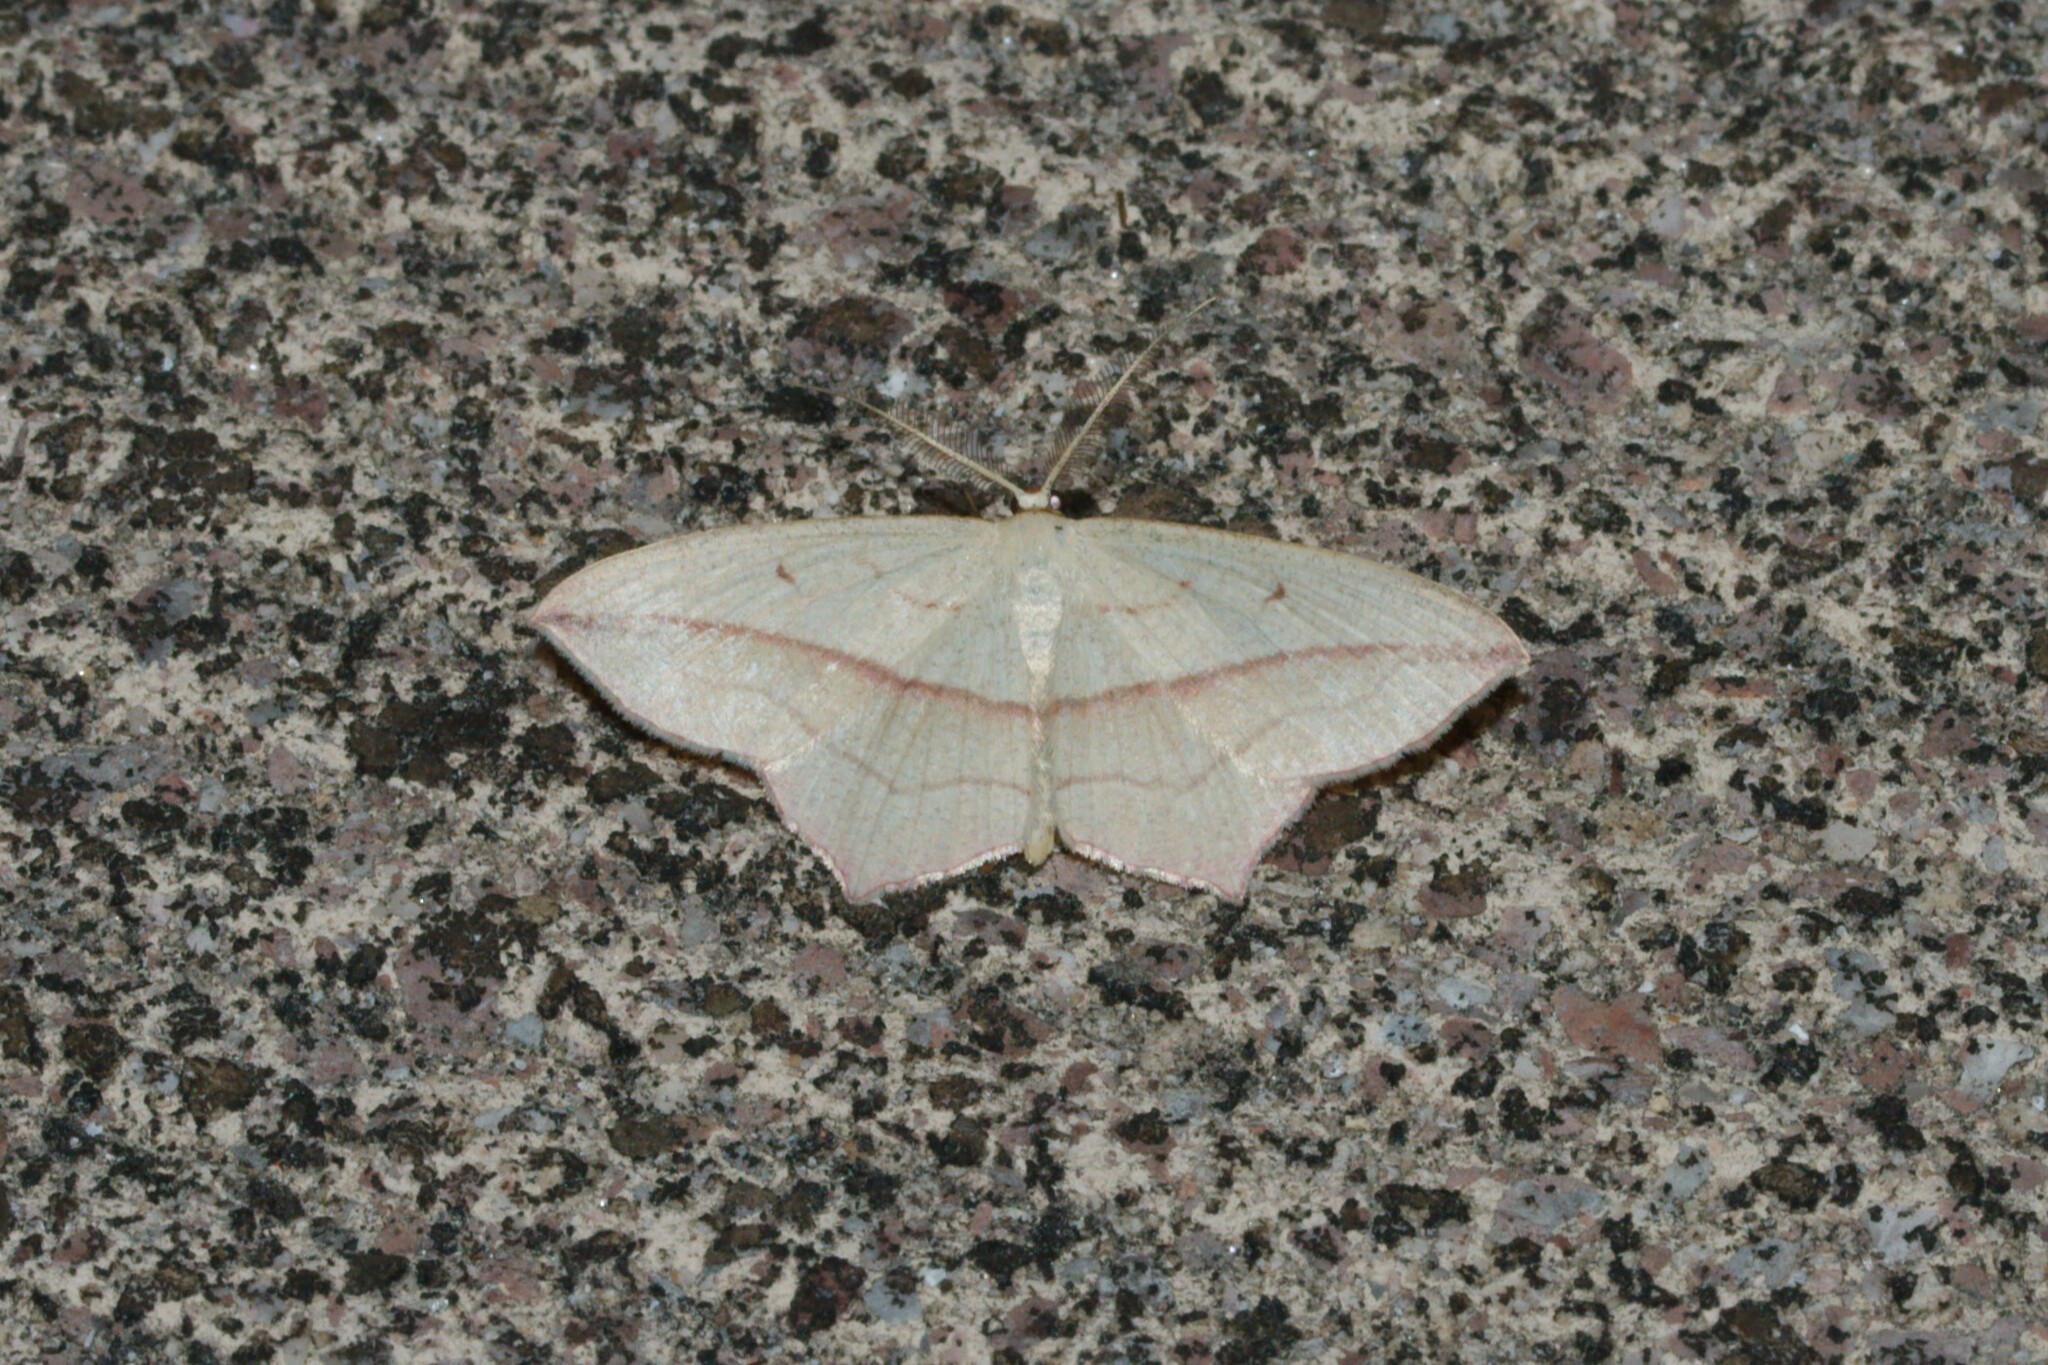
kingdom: Animalia
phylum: Arthropoda
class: Insecta
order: Lepidoptera
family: Geometridae
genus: Timandra
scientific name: Timandra comae
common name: Blood-vein
